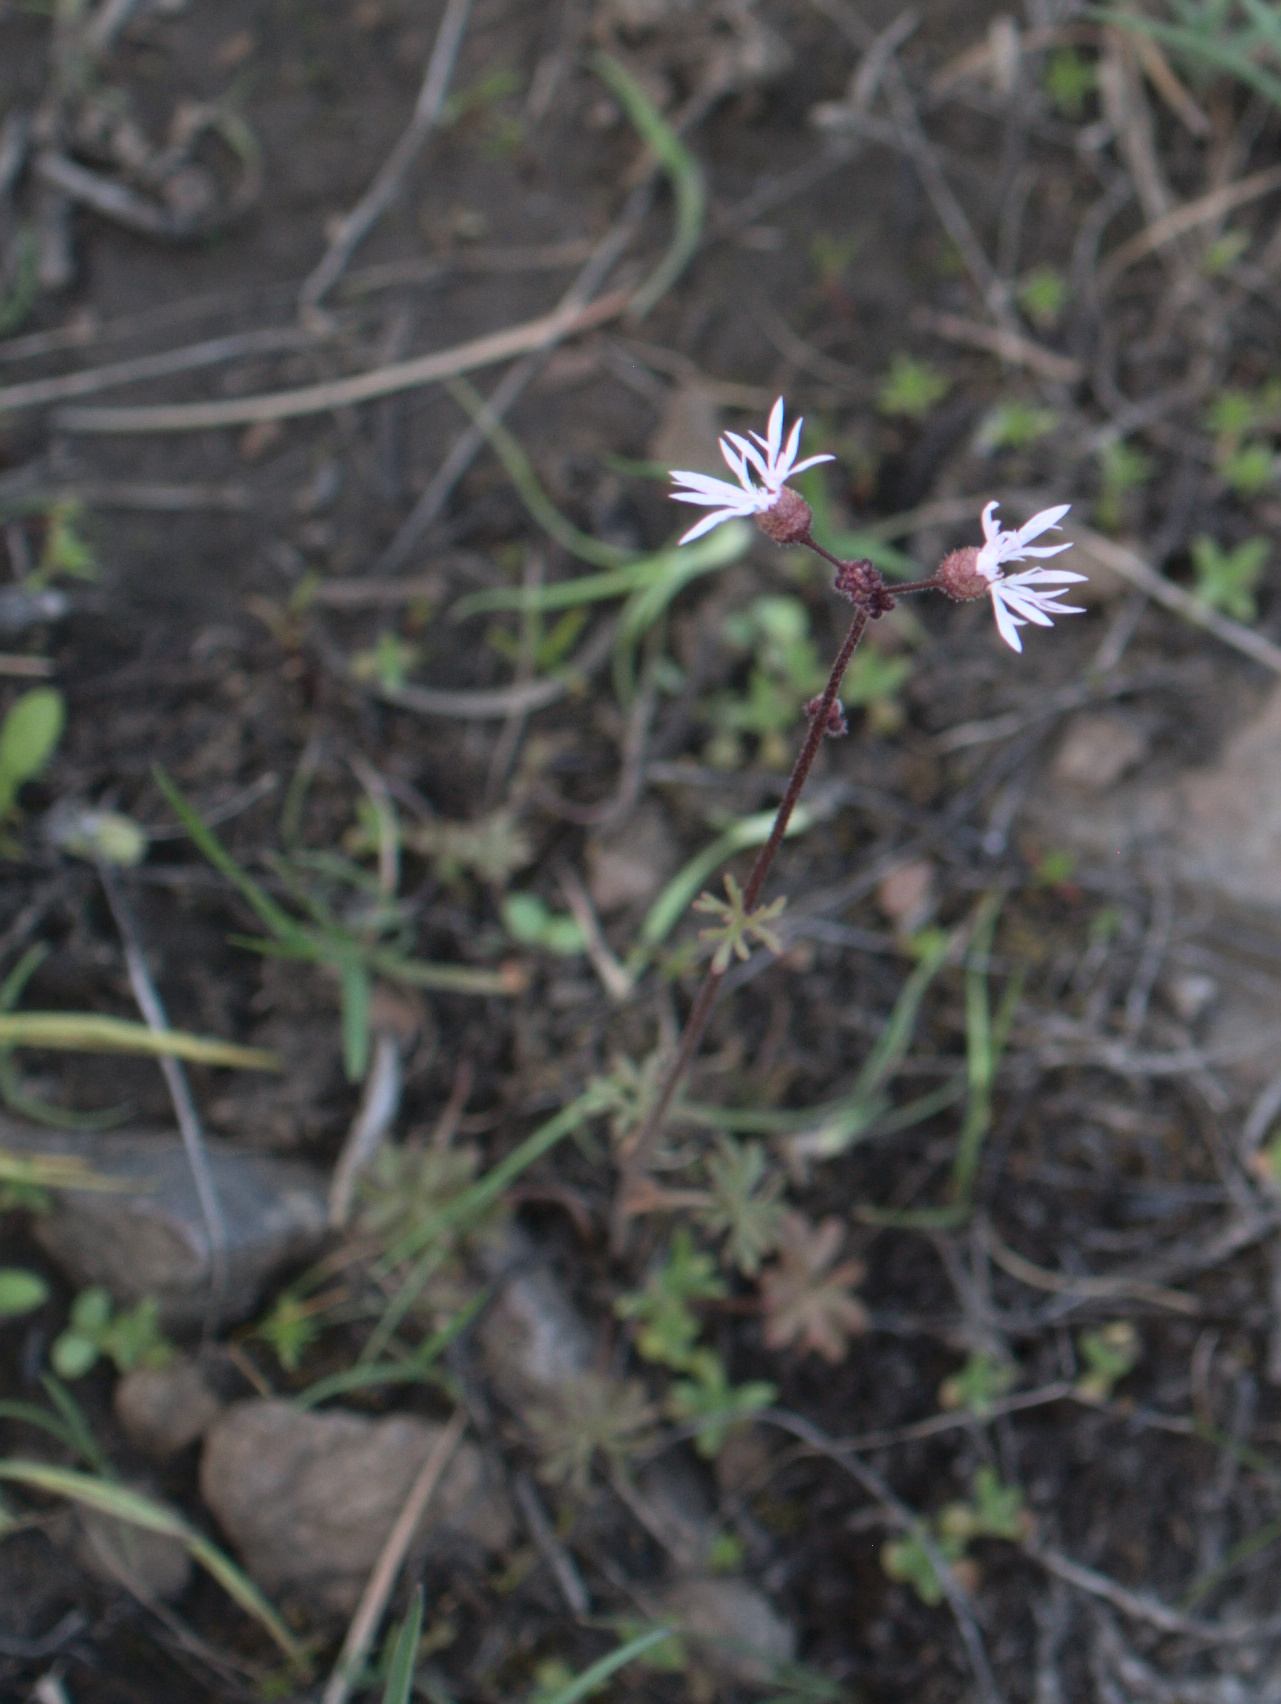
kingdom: Plantae
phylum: Tracheophyta
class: Magnoliopsida
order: Saxifragales
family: Saxifragaceae
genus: Lithophragma
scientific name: Lithophragma glabrum
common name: Bulbous prairie-star
